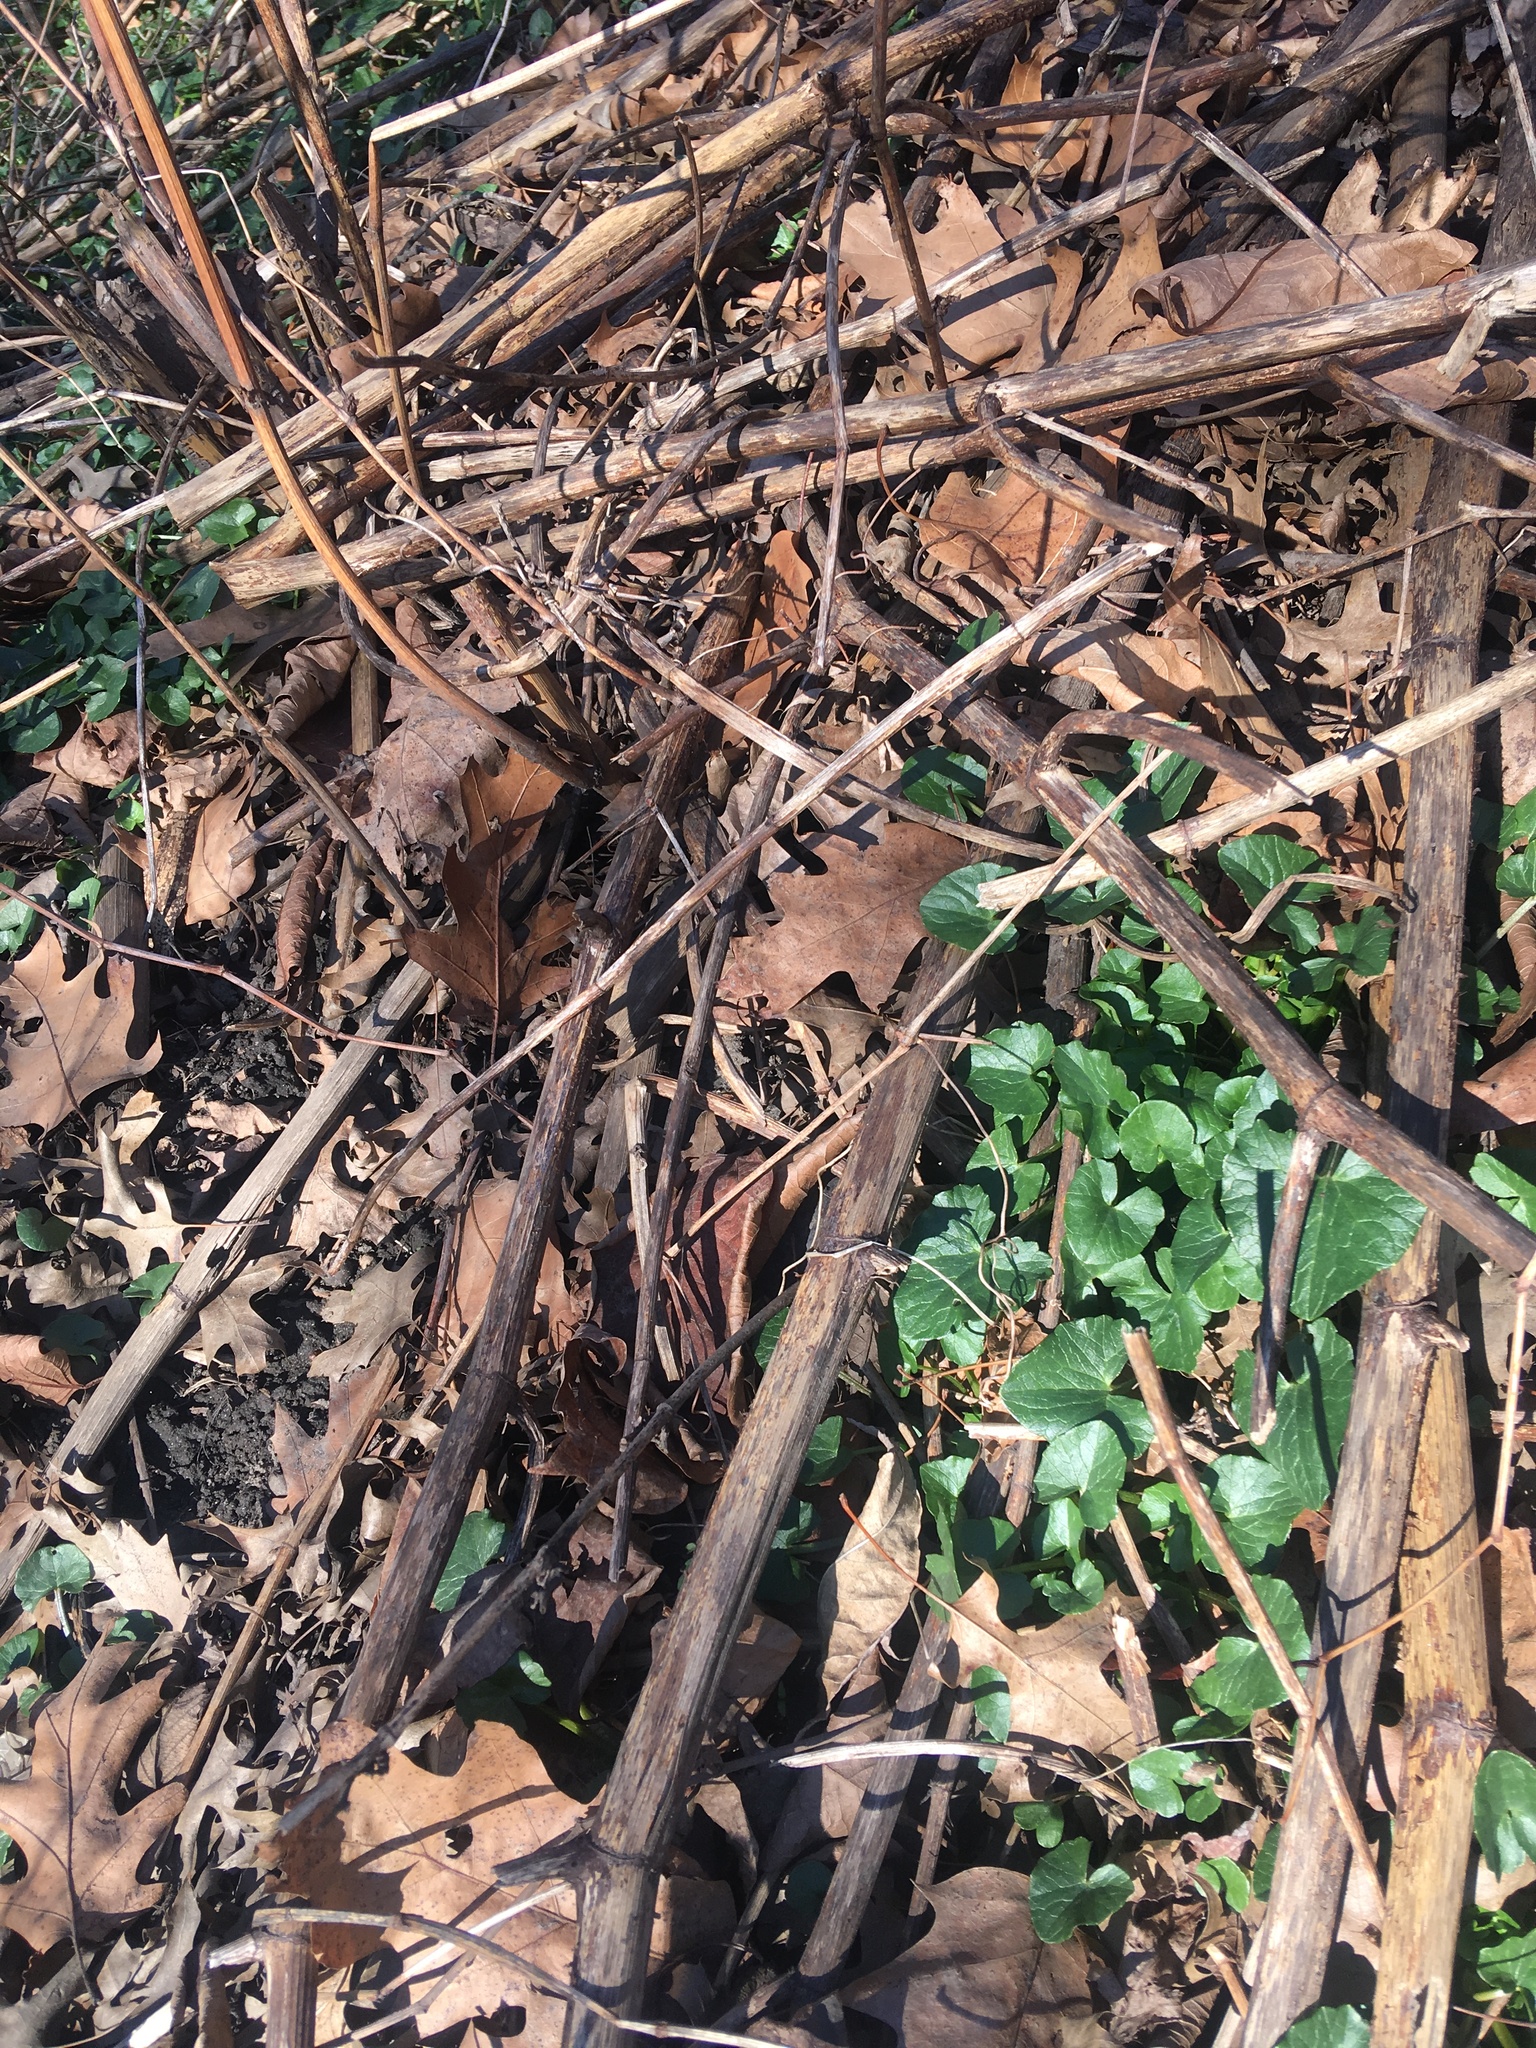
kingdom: Plantae
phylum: Tracheophyta
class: Magnoliopsida
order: Ranunculales
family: Ranunculaceae
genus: Ficaria
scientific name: Ficaria verna
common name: Lesser celandine
